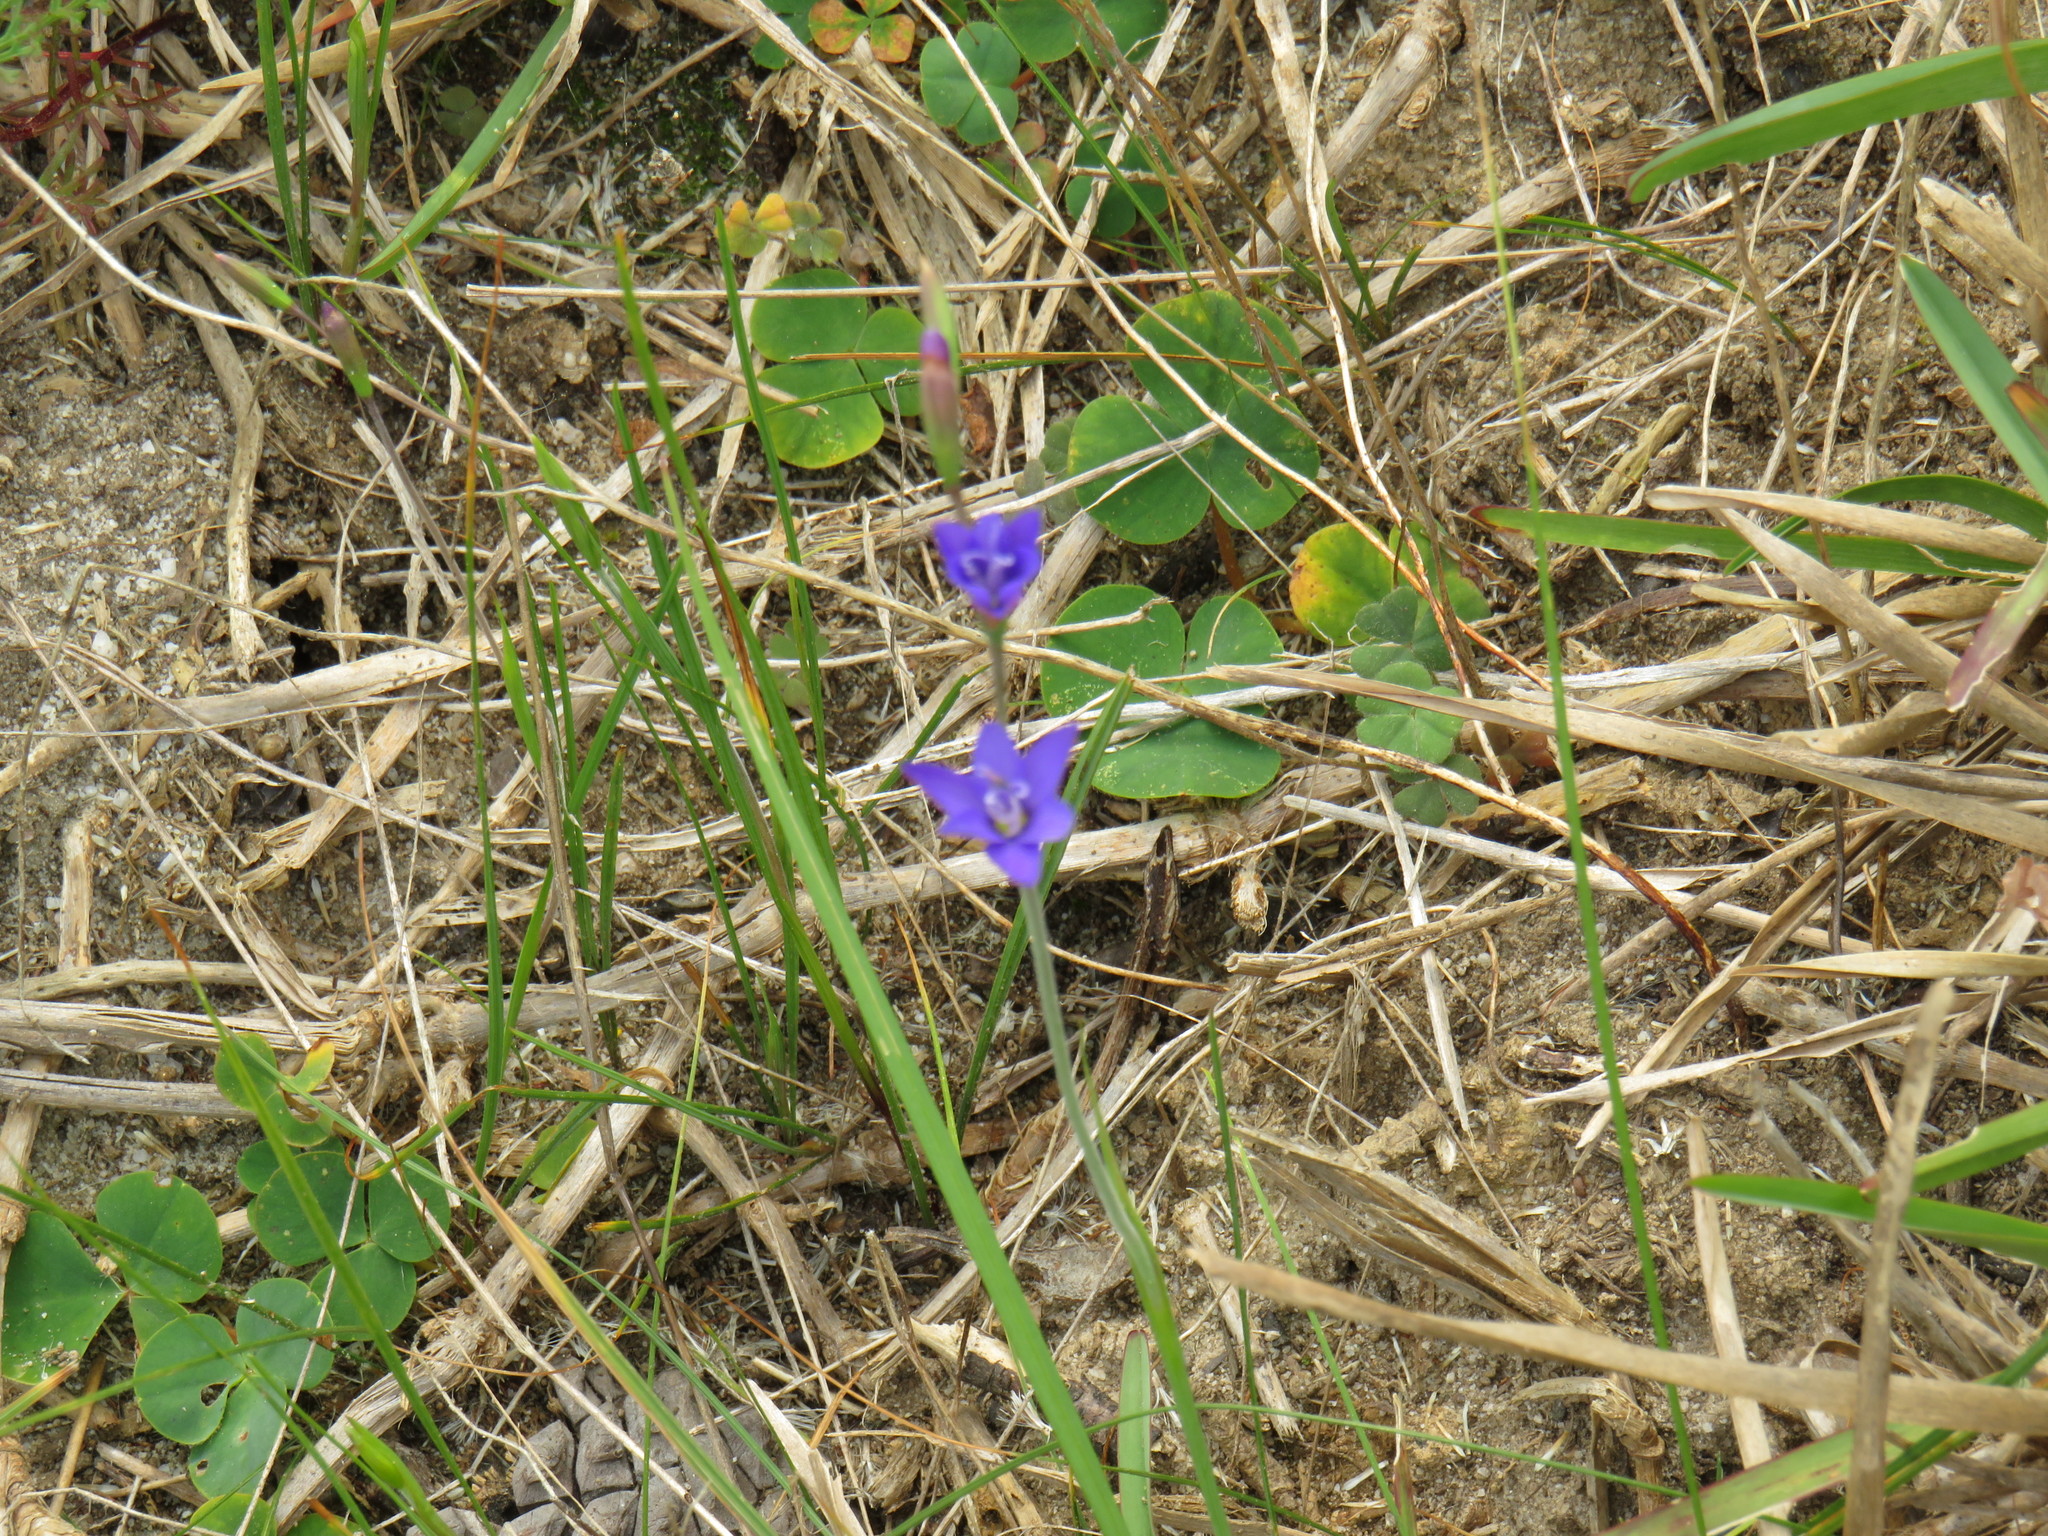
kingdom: Plantae
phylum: Tracheophyta
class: Liliopsida
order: Asparagales
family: Iridaceae
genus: Geissorhiza
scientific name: Geissorhiza aspera
